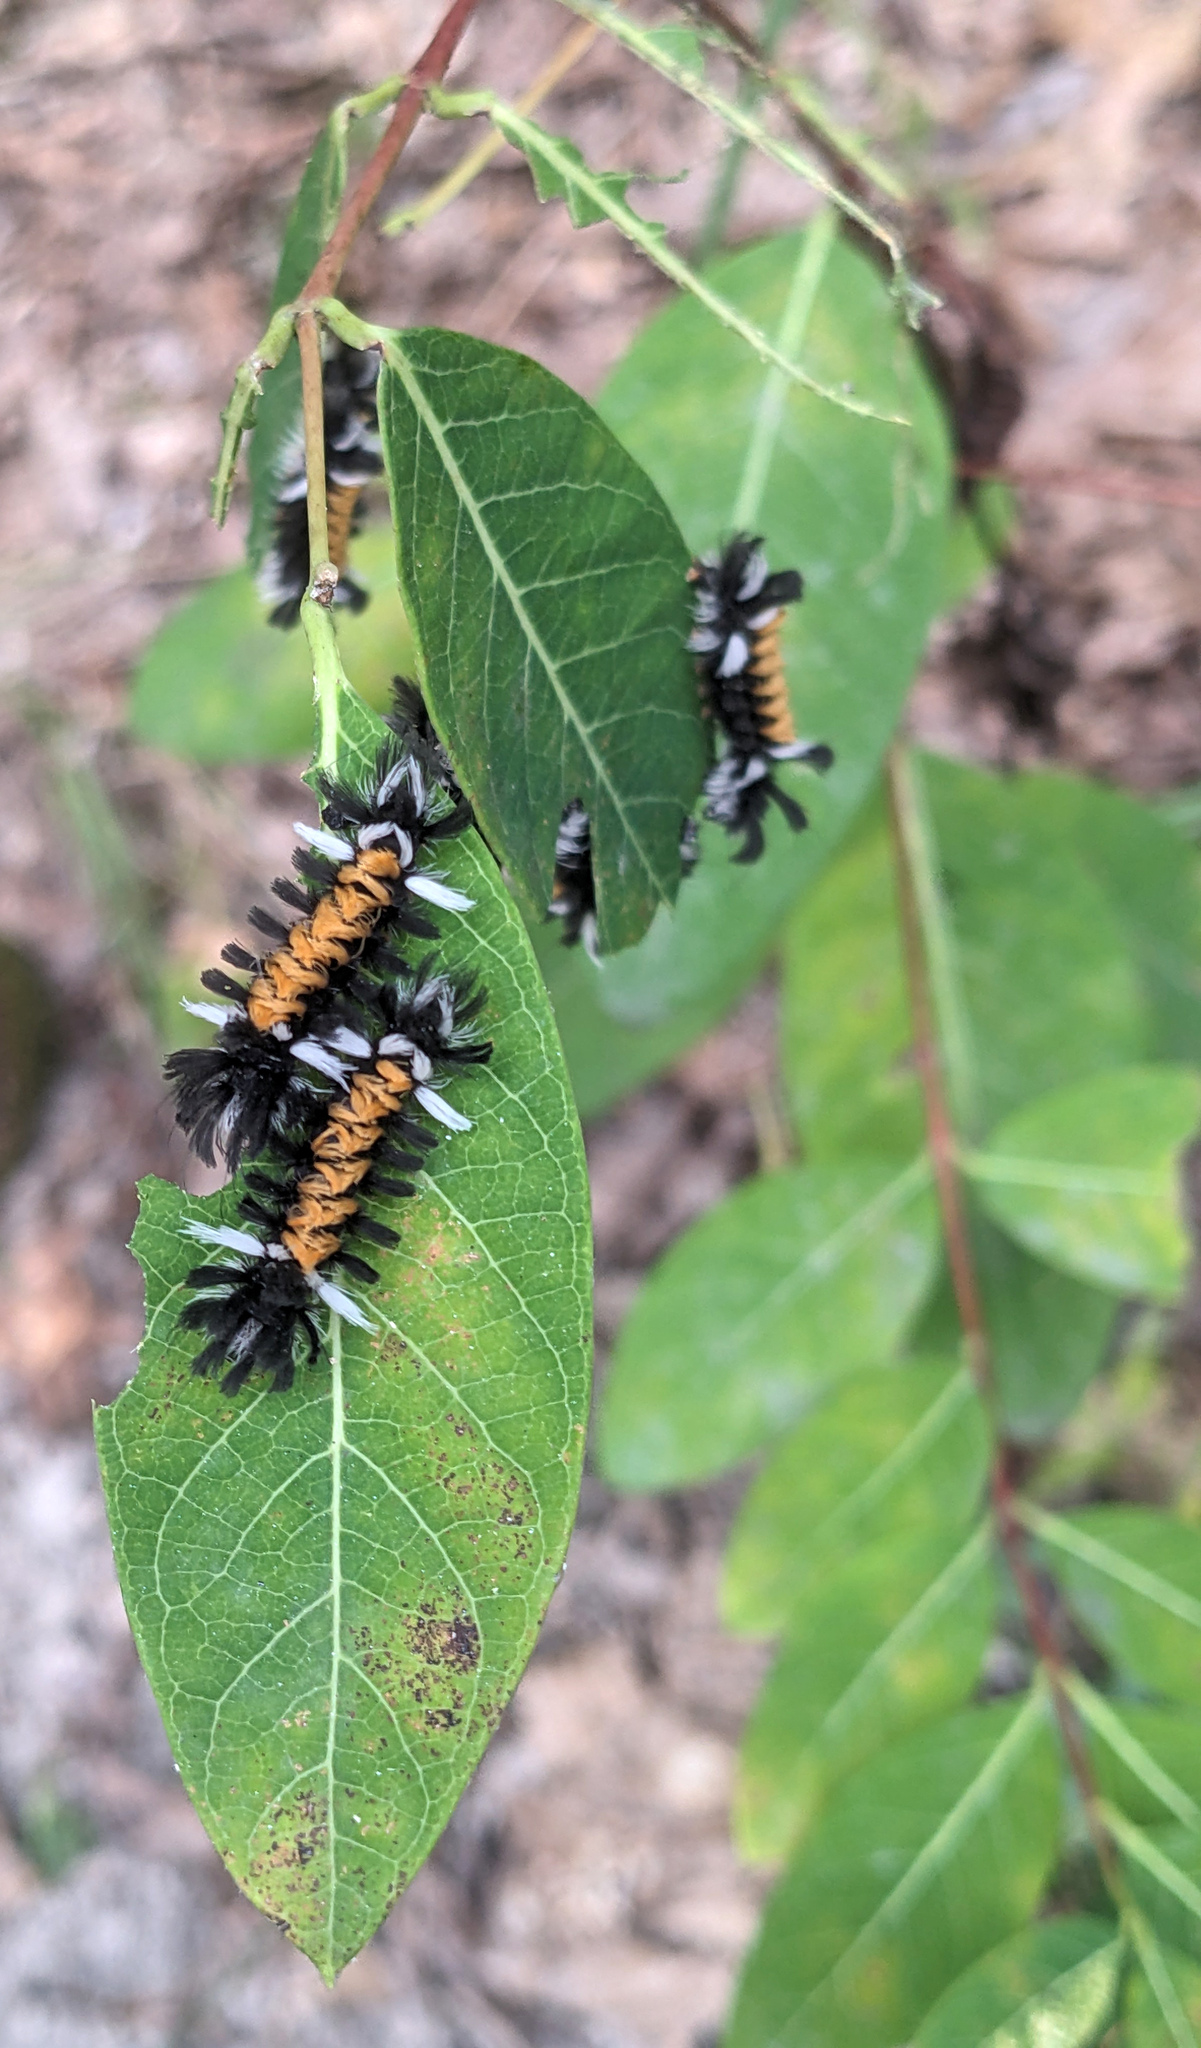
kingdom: Animalia
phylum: Arthropoda
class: Insecta
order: Lepidoptera
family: Erebidae
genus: Euchaetes
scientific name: Euchaetes egle
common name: Milkweed tussock moth
